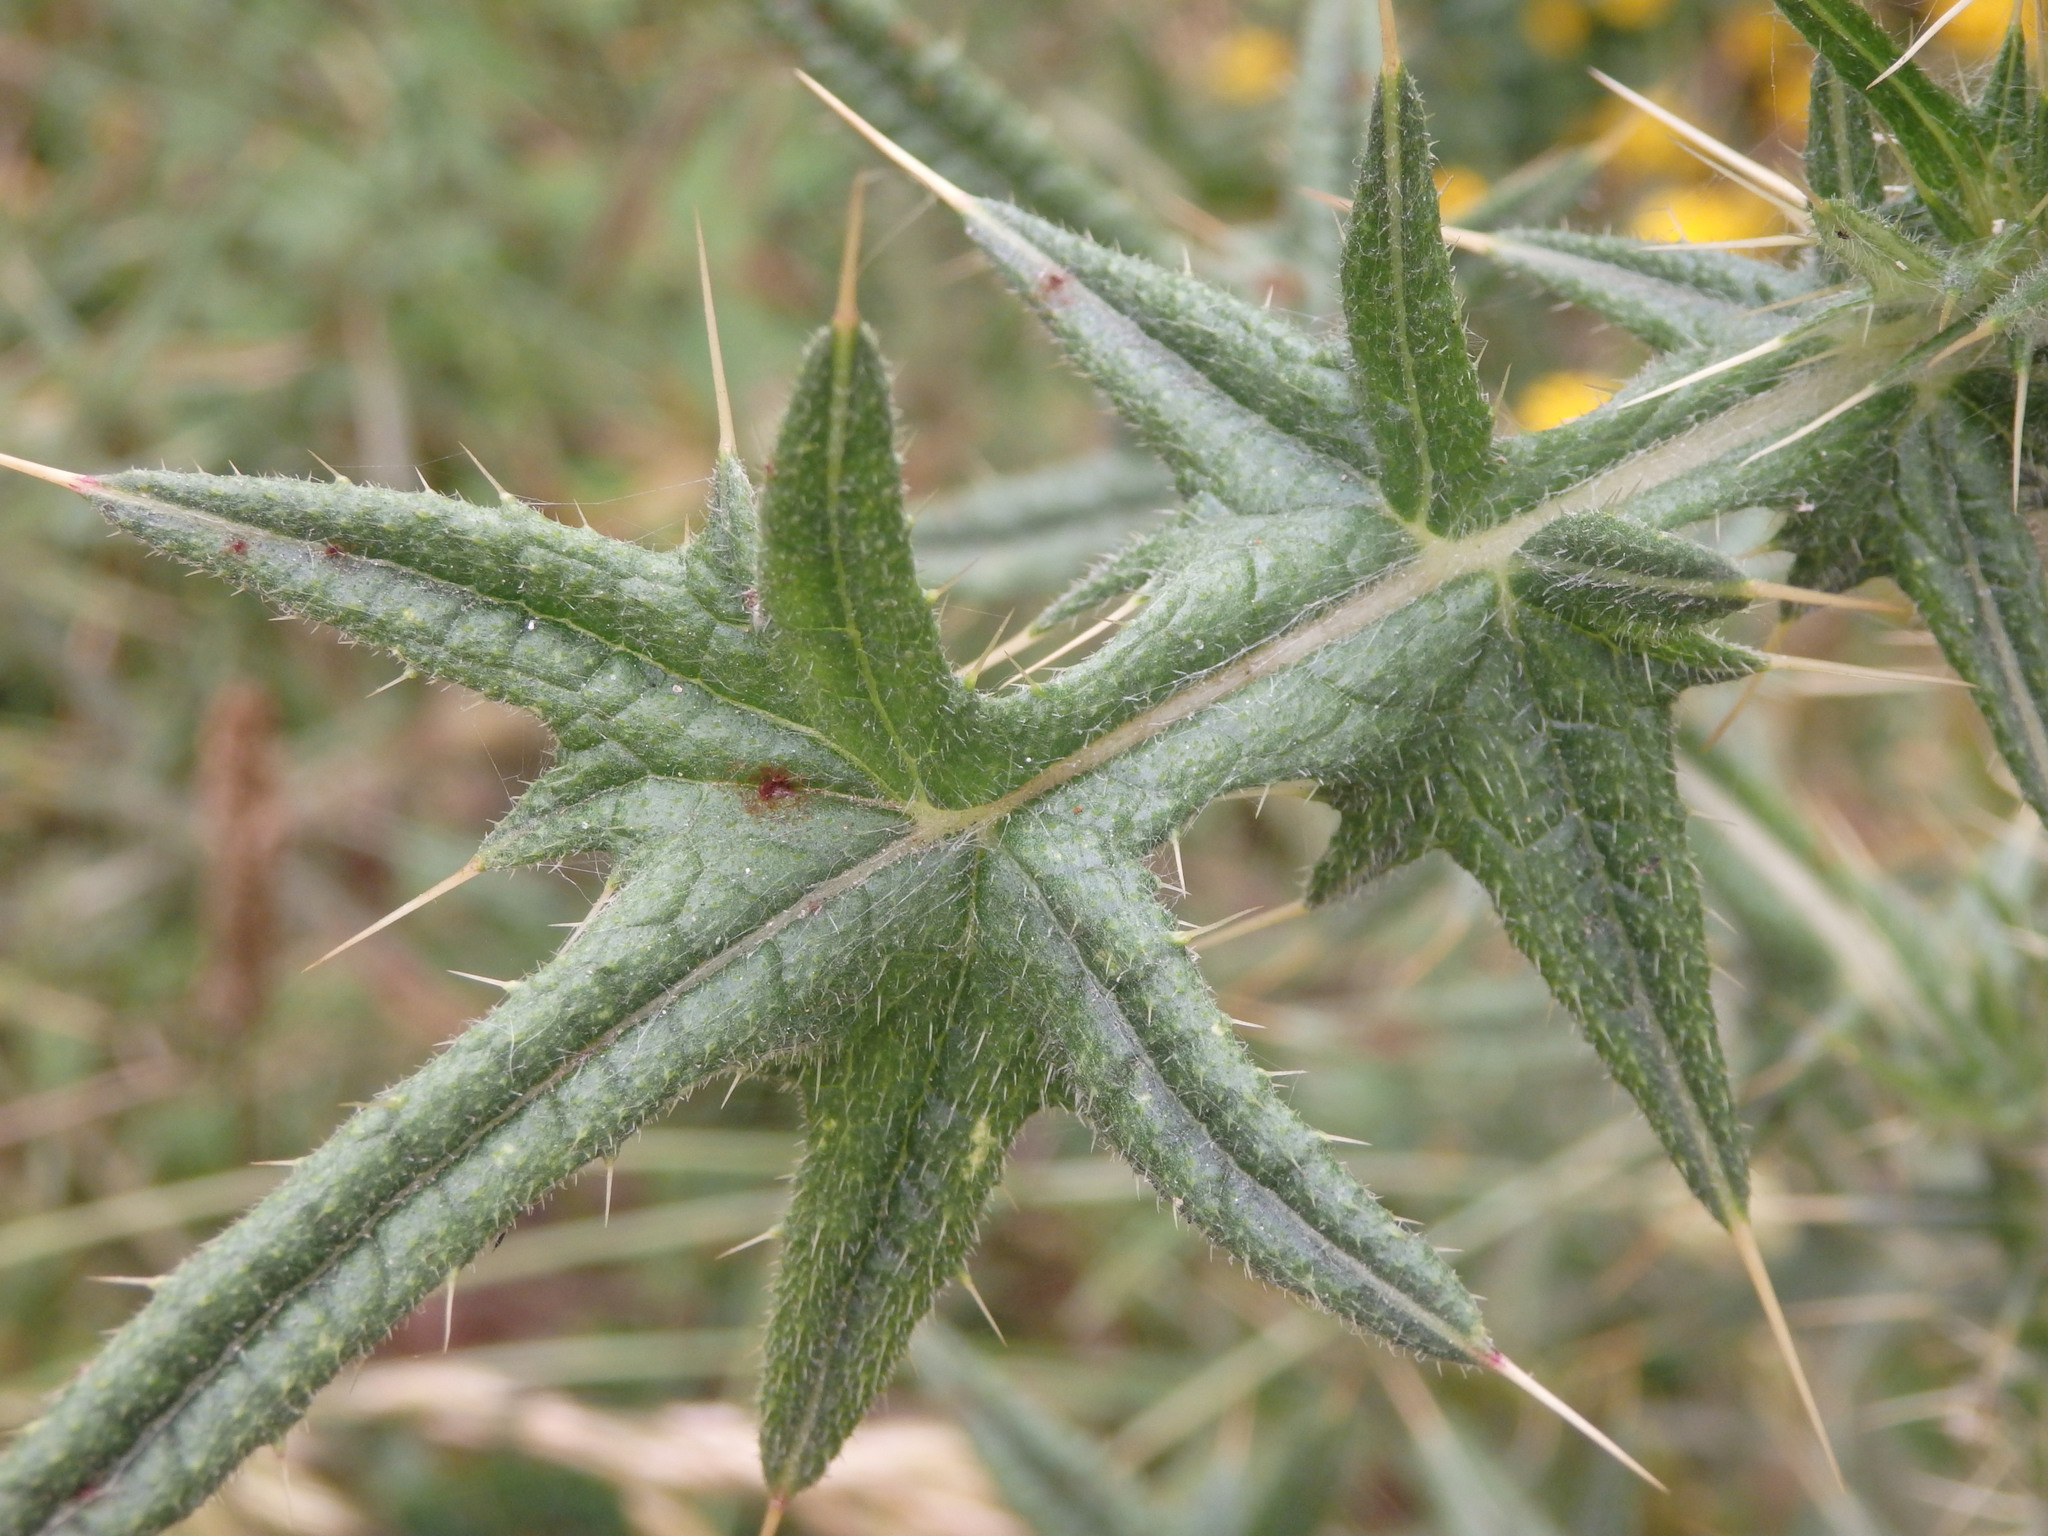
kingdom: Plantae
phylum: Tracheophyta
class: Magnoliopsida
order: Asterales
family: Asteraceae
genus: Cirsium
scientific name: Cirsium vulgare
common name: Bull thistle
